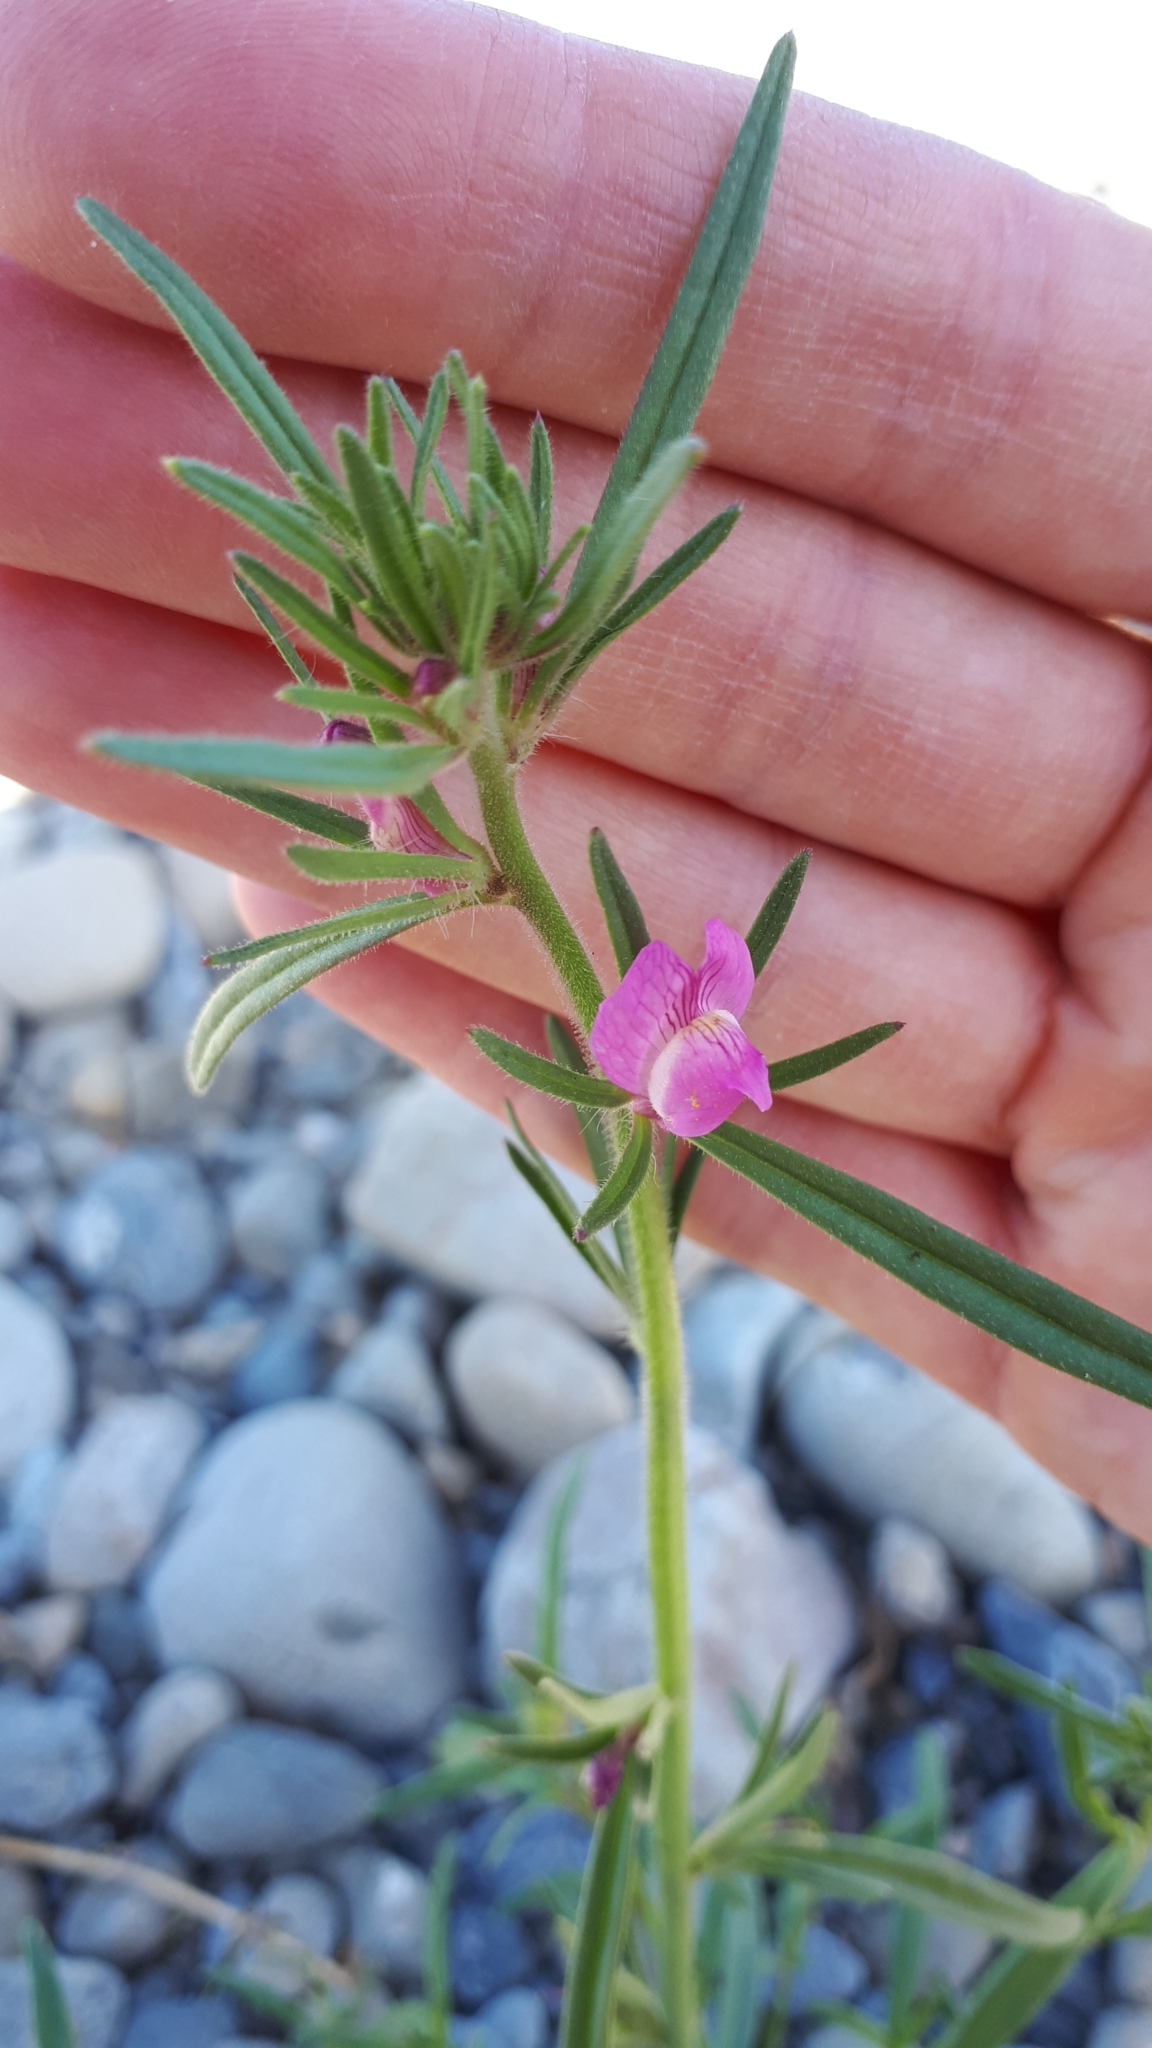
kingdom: Plantae
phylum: Tracheophyta
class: Magnoliopsida
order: Lamiales
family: Plantaginaceae
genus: Misopates
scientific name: Misopates orontium
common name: Weasel's-snout
